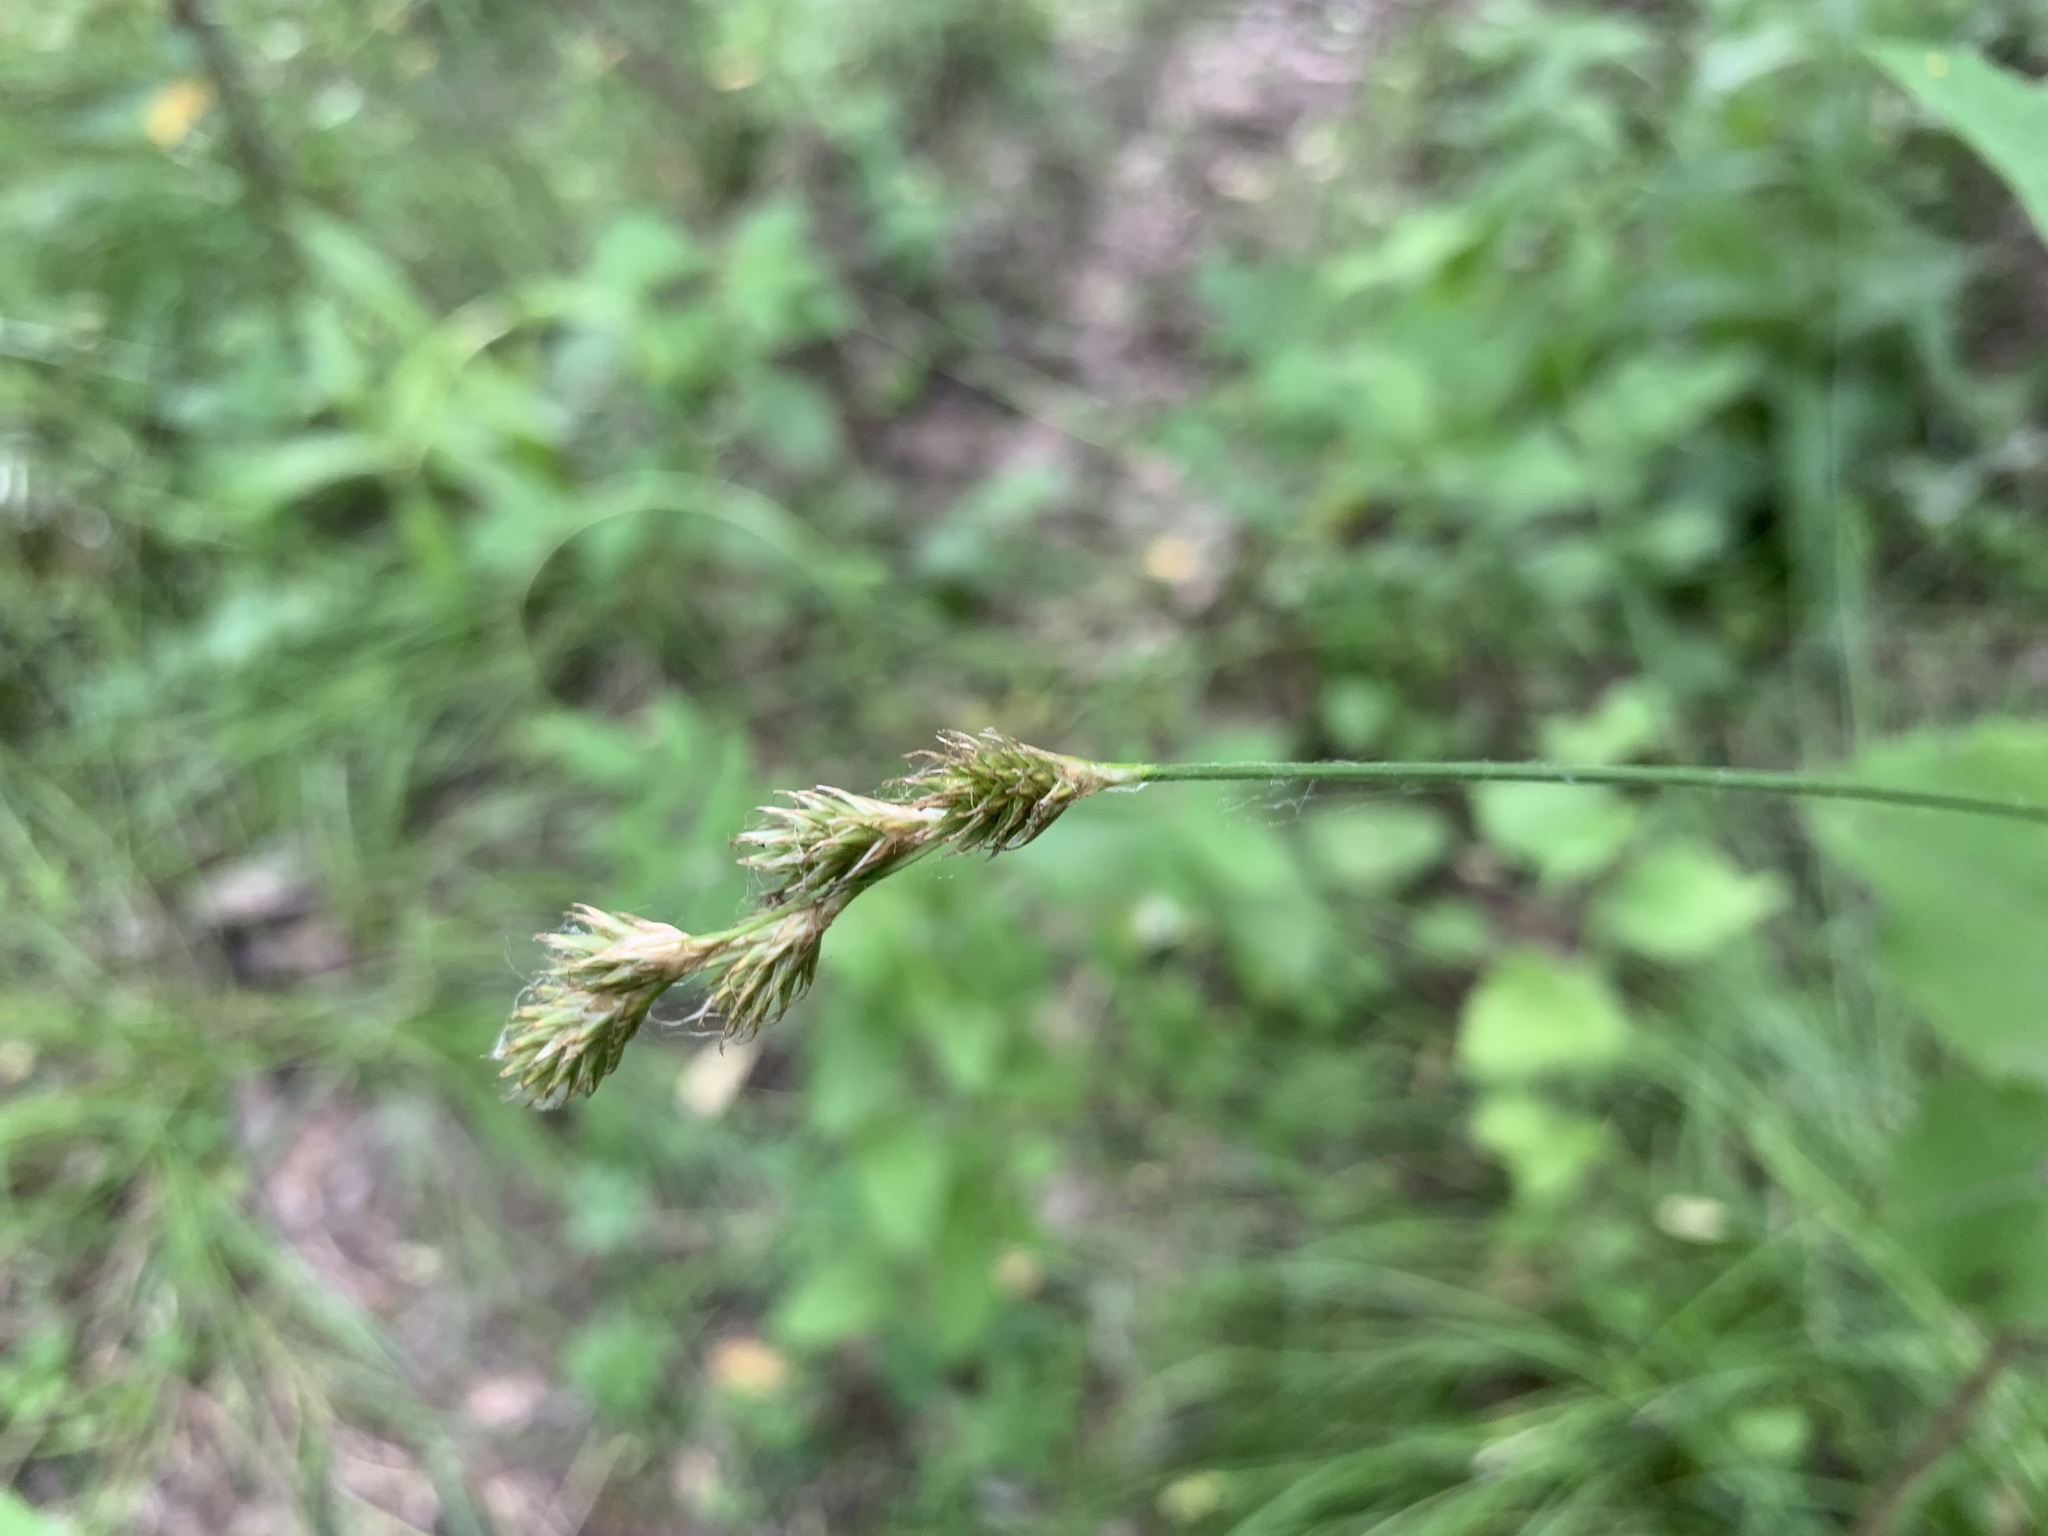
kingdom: Plantae
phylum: Tracheophyta
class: Liliopsida
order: Poales
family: Cyperaceae
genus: Carex
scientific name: Carex leporina
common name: Oval sedge
